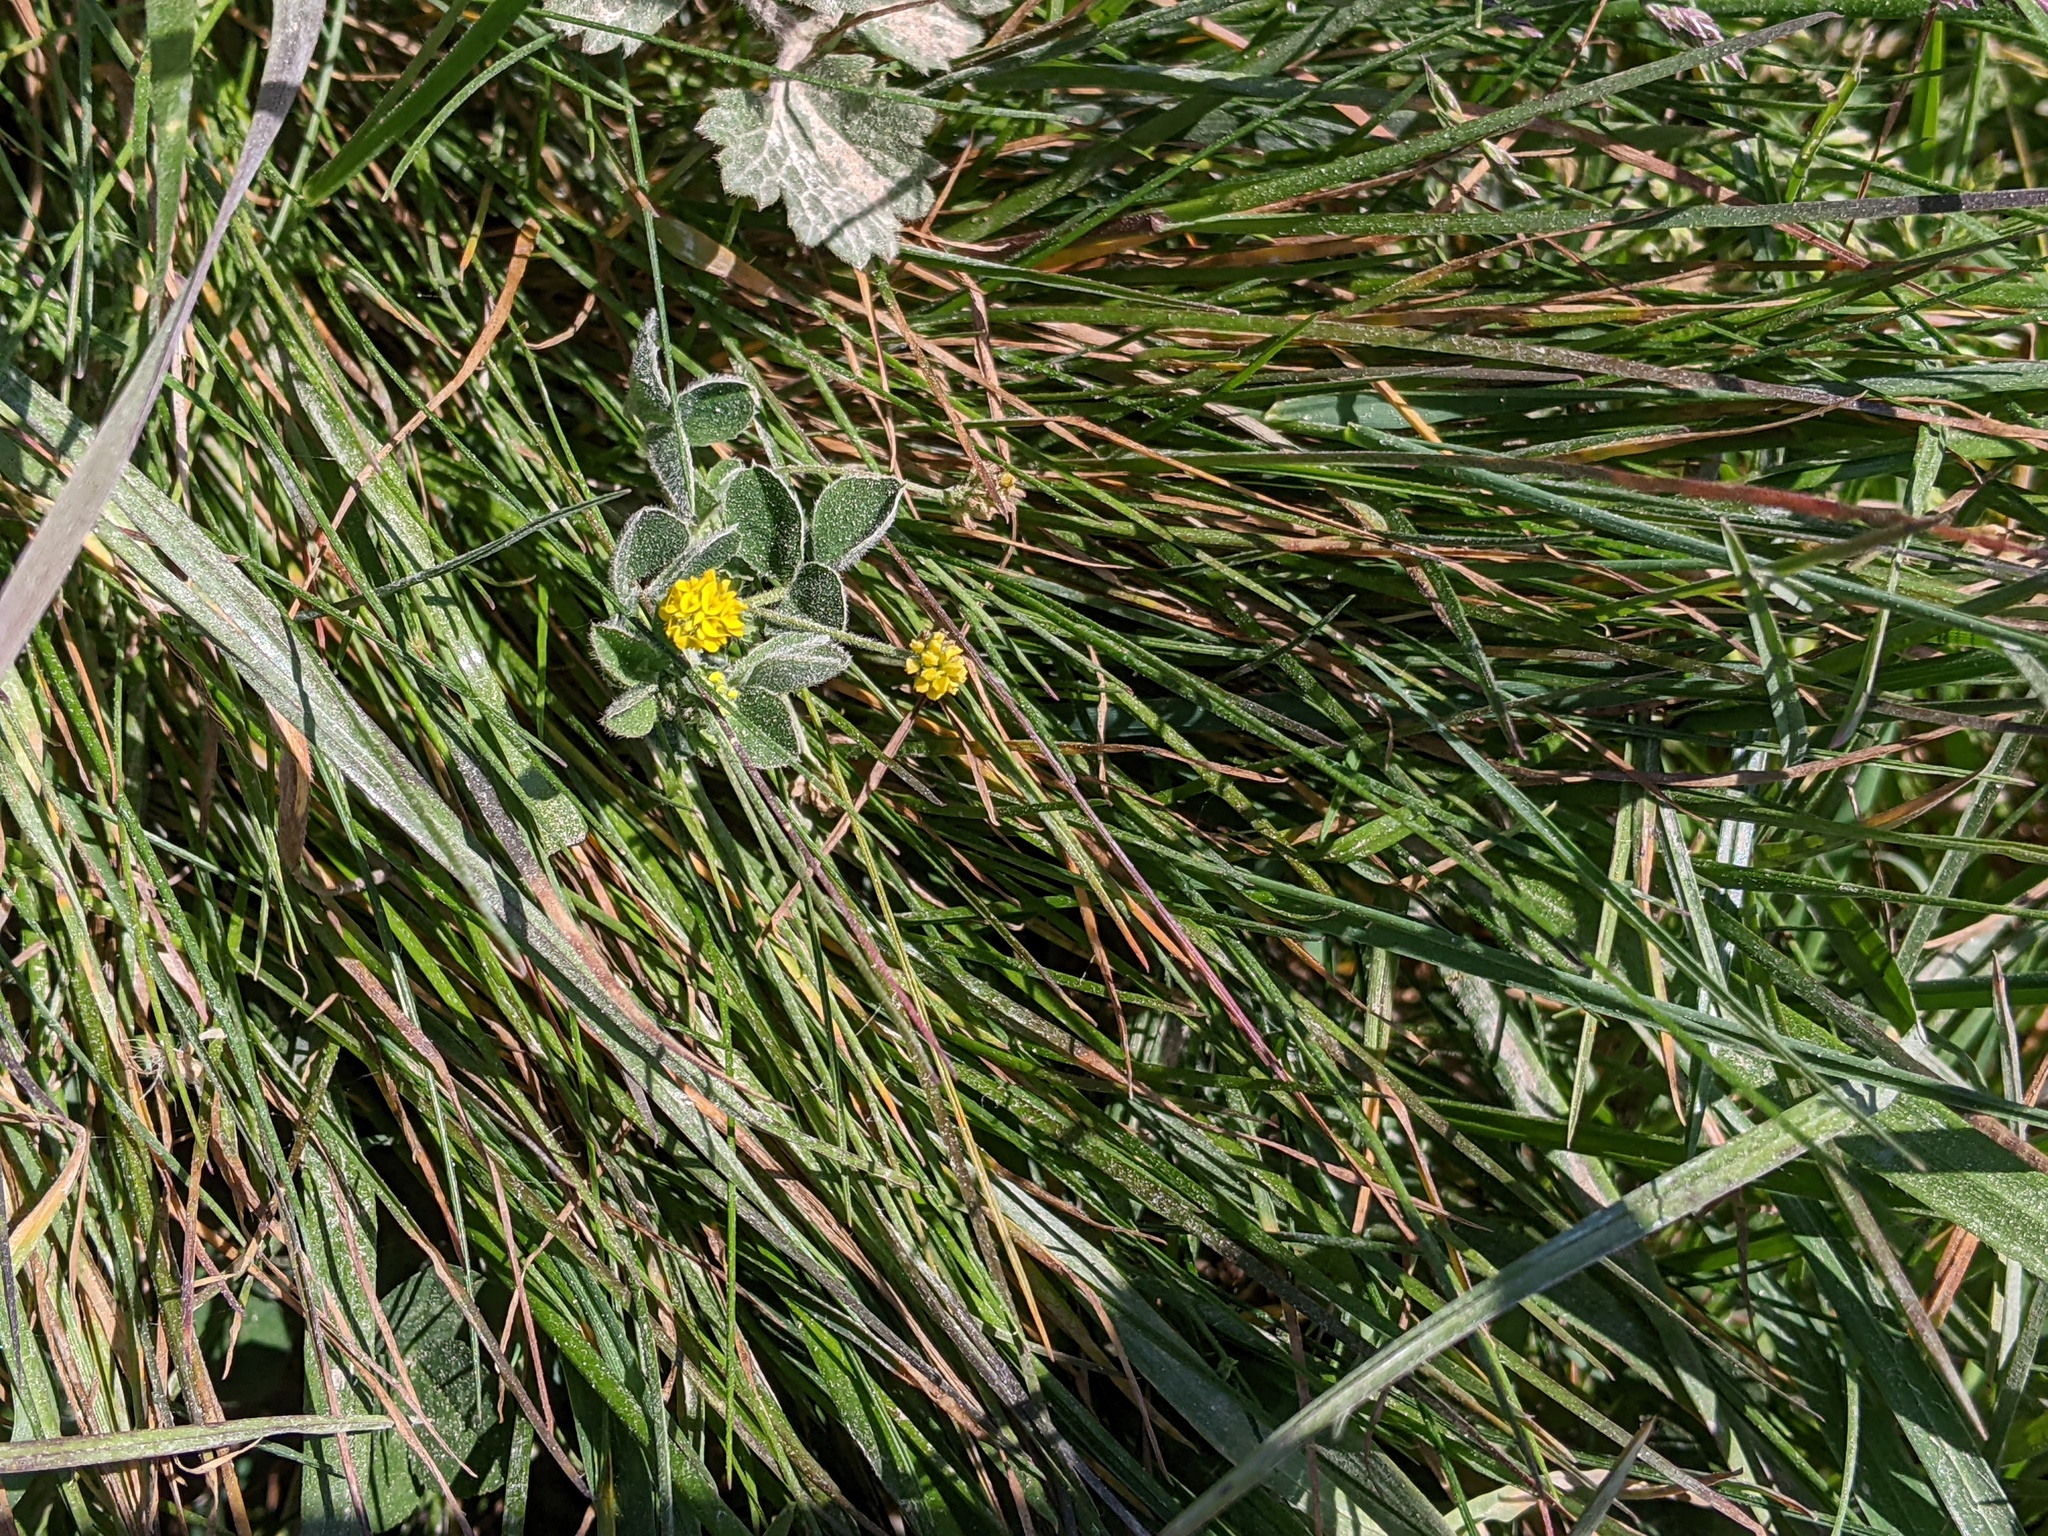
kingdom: Plantae
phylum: Tracheophyta
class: Magnoliopsida
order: Fabales
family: Fabaceae
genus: Medicago
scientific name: Medicago lupulina
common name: Black medick
